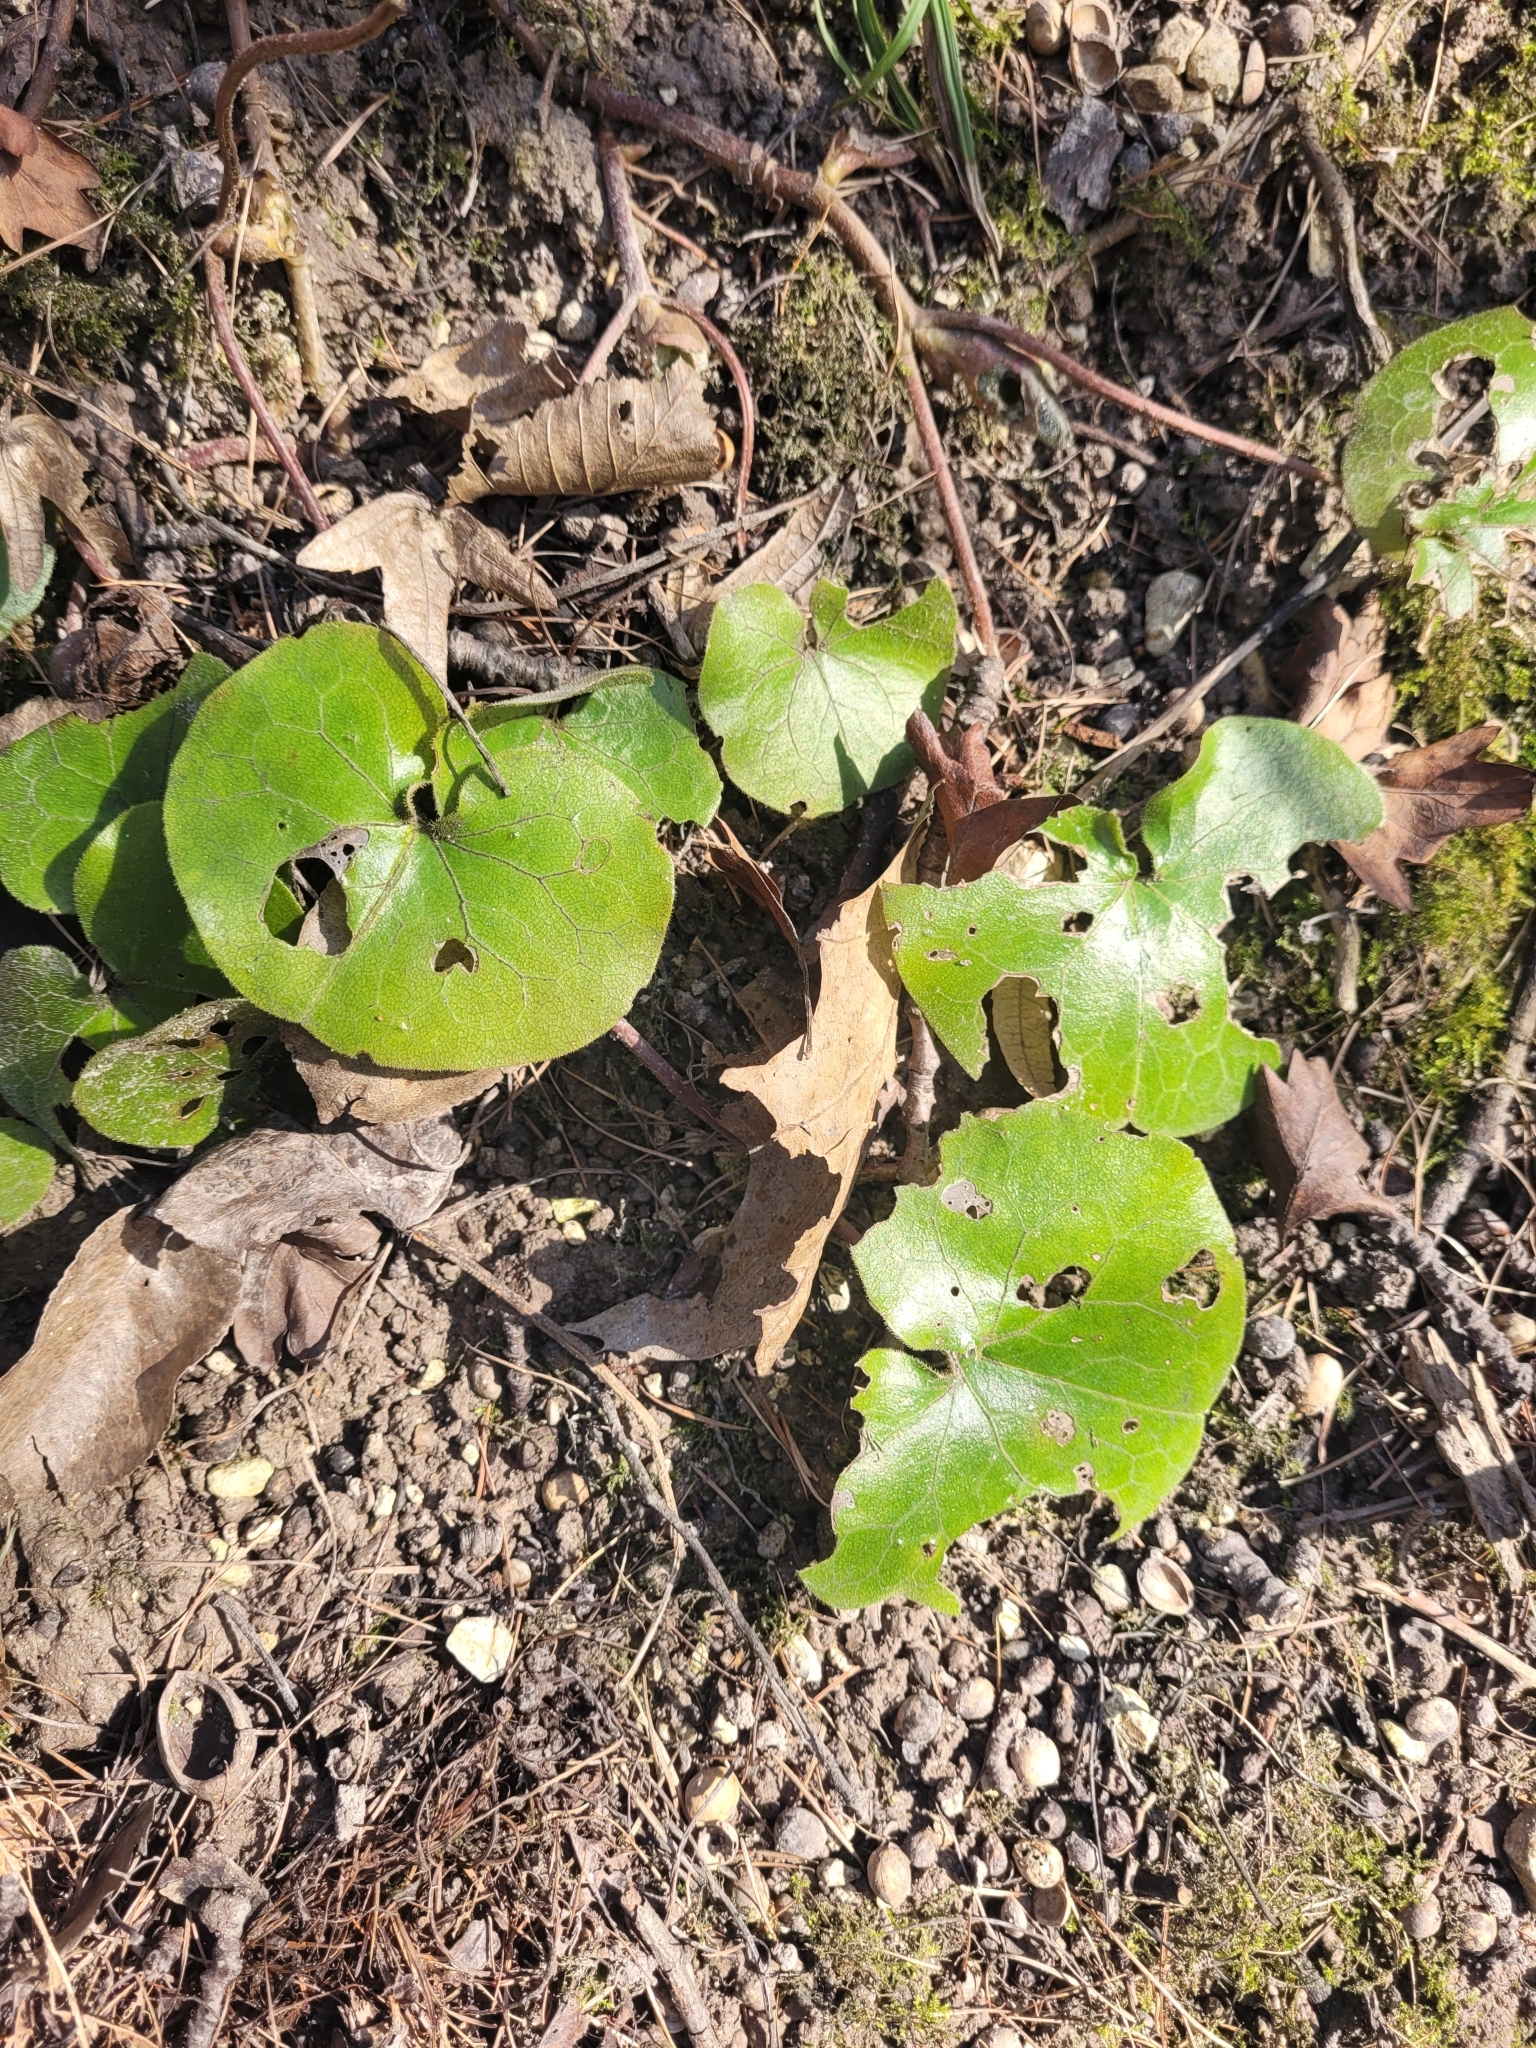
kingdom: Plantae
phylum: Tracheophyta
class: Magnoliopsida
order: Piperales
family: Aristolochiaceae
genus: Asarum
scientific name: Asarum europaeum
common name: Asarabacca
